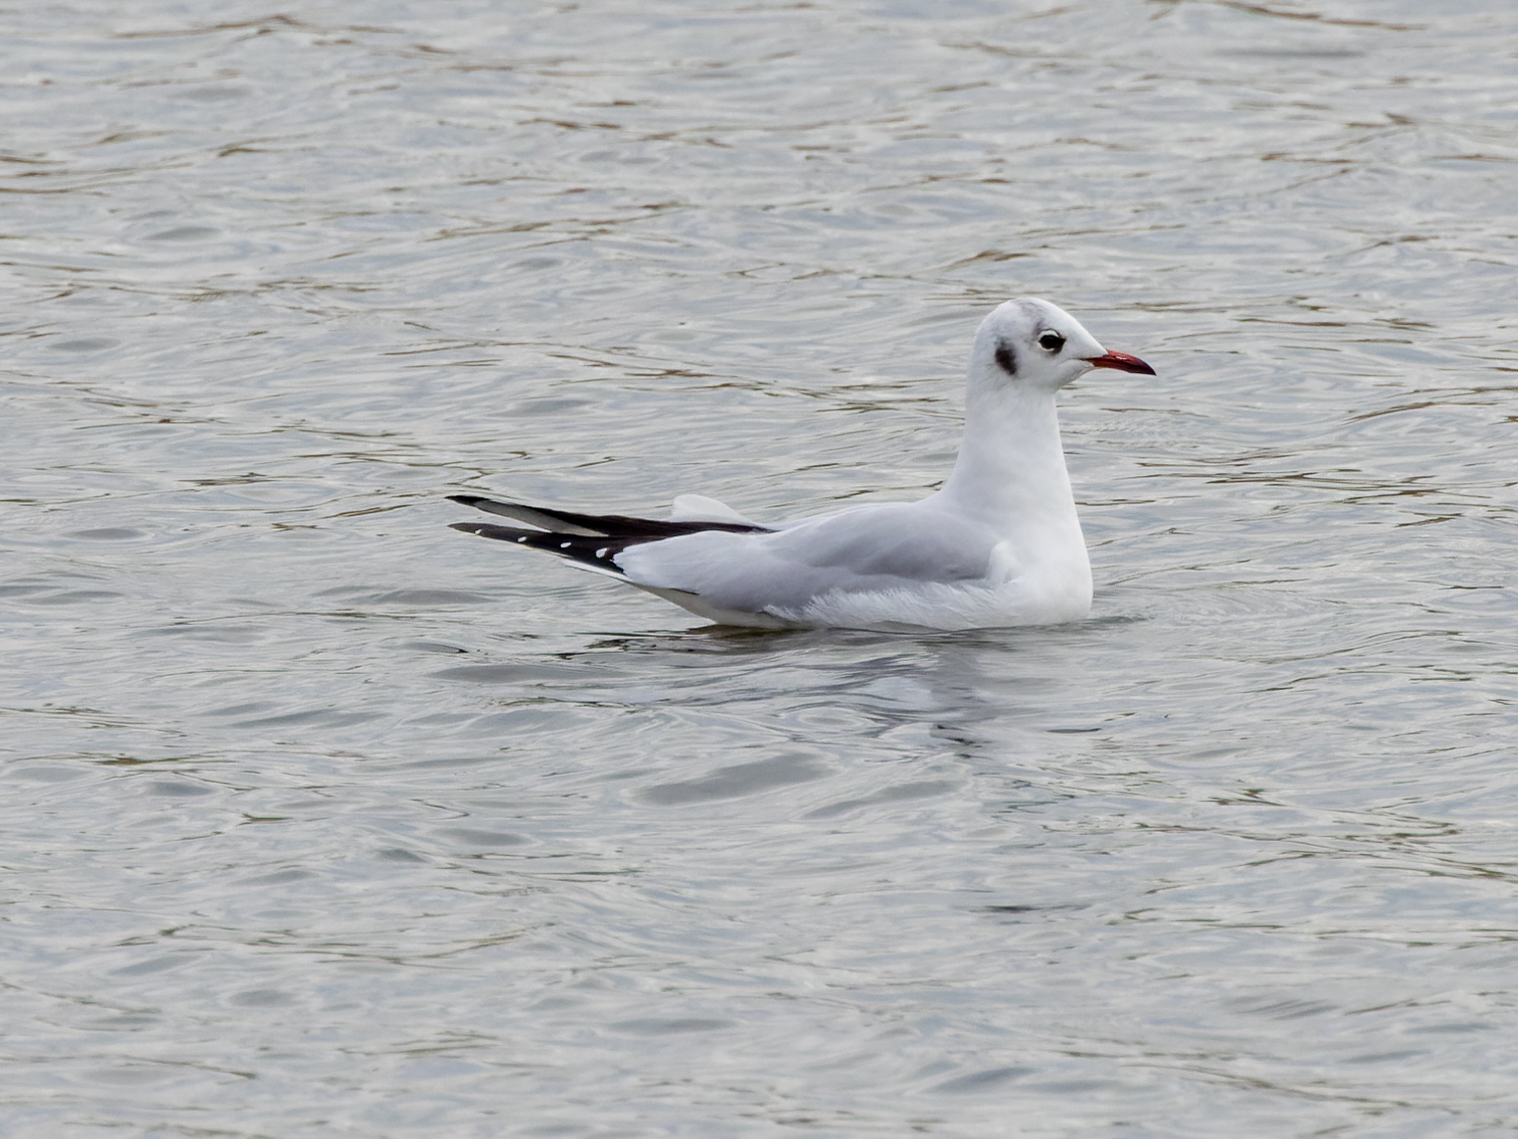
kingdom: Animalia
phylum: Chordata
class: Aves
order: Charadriiformes
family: Laridae
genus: Chroicocephalus
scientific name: Chroicocephalus ridibundus
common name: Black-headed gull
